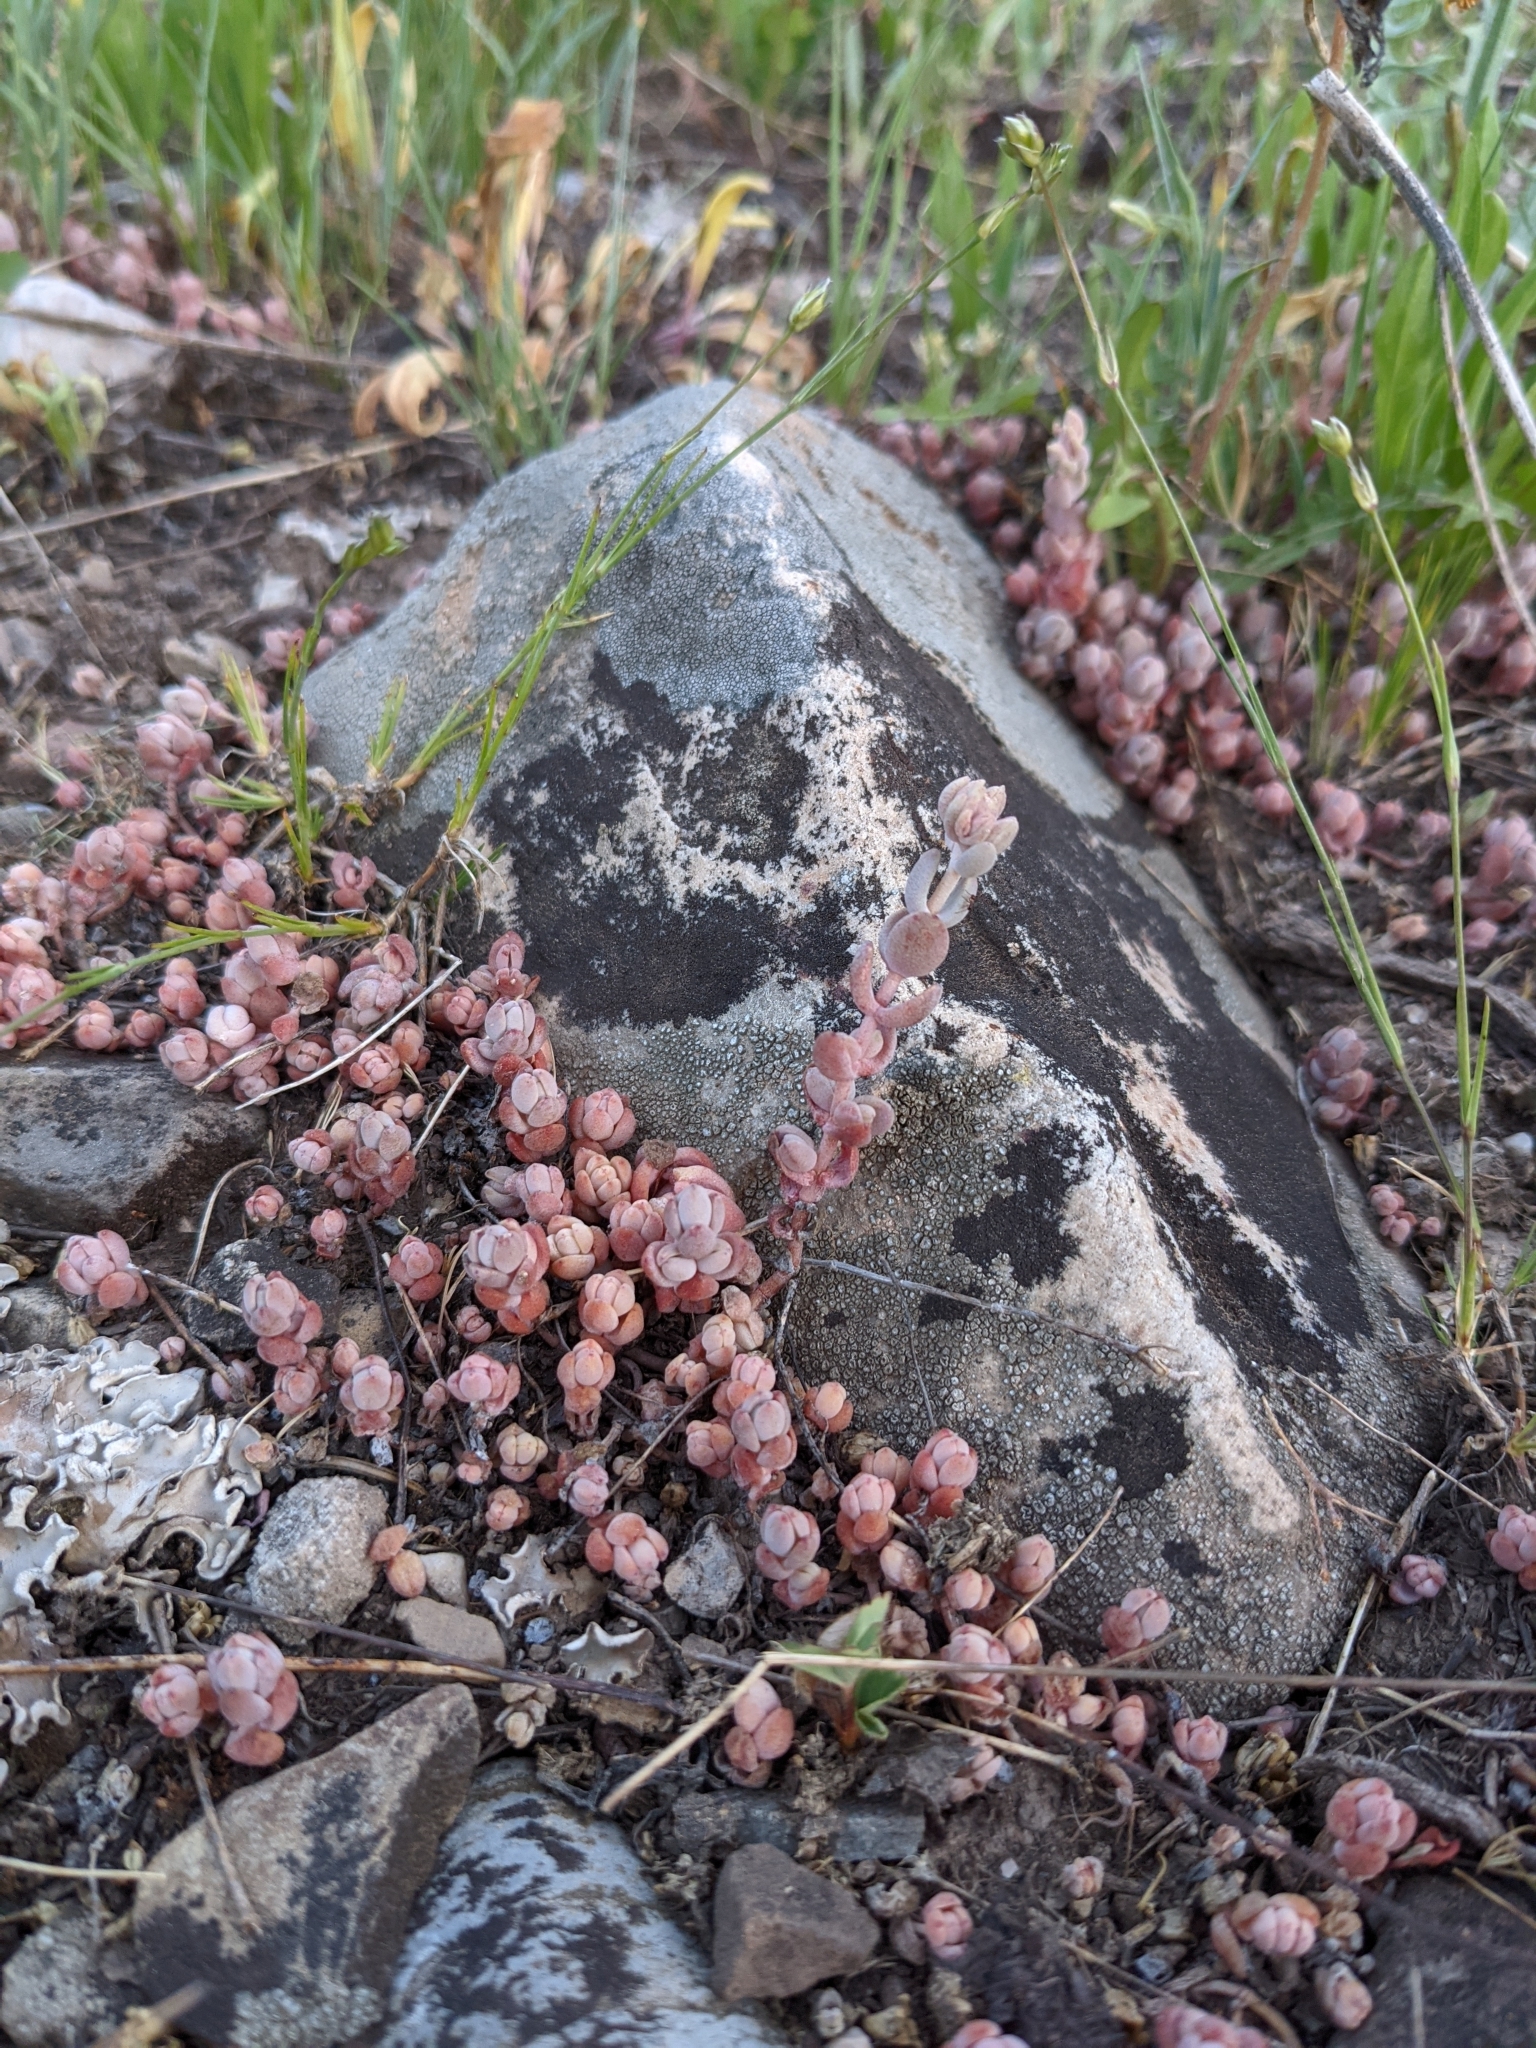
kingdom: Plantae
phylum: Tracheophyta
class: Magnoliopsida
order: Saxifragales
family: Crassulaceae
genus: Sedum
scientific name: Sedum debile
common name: Weak-stem stonecrop
